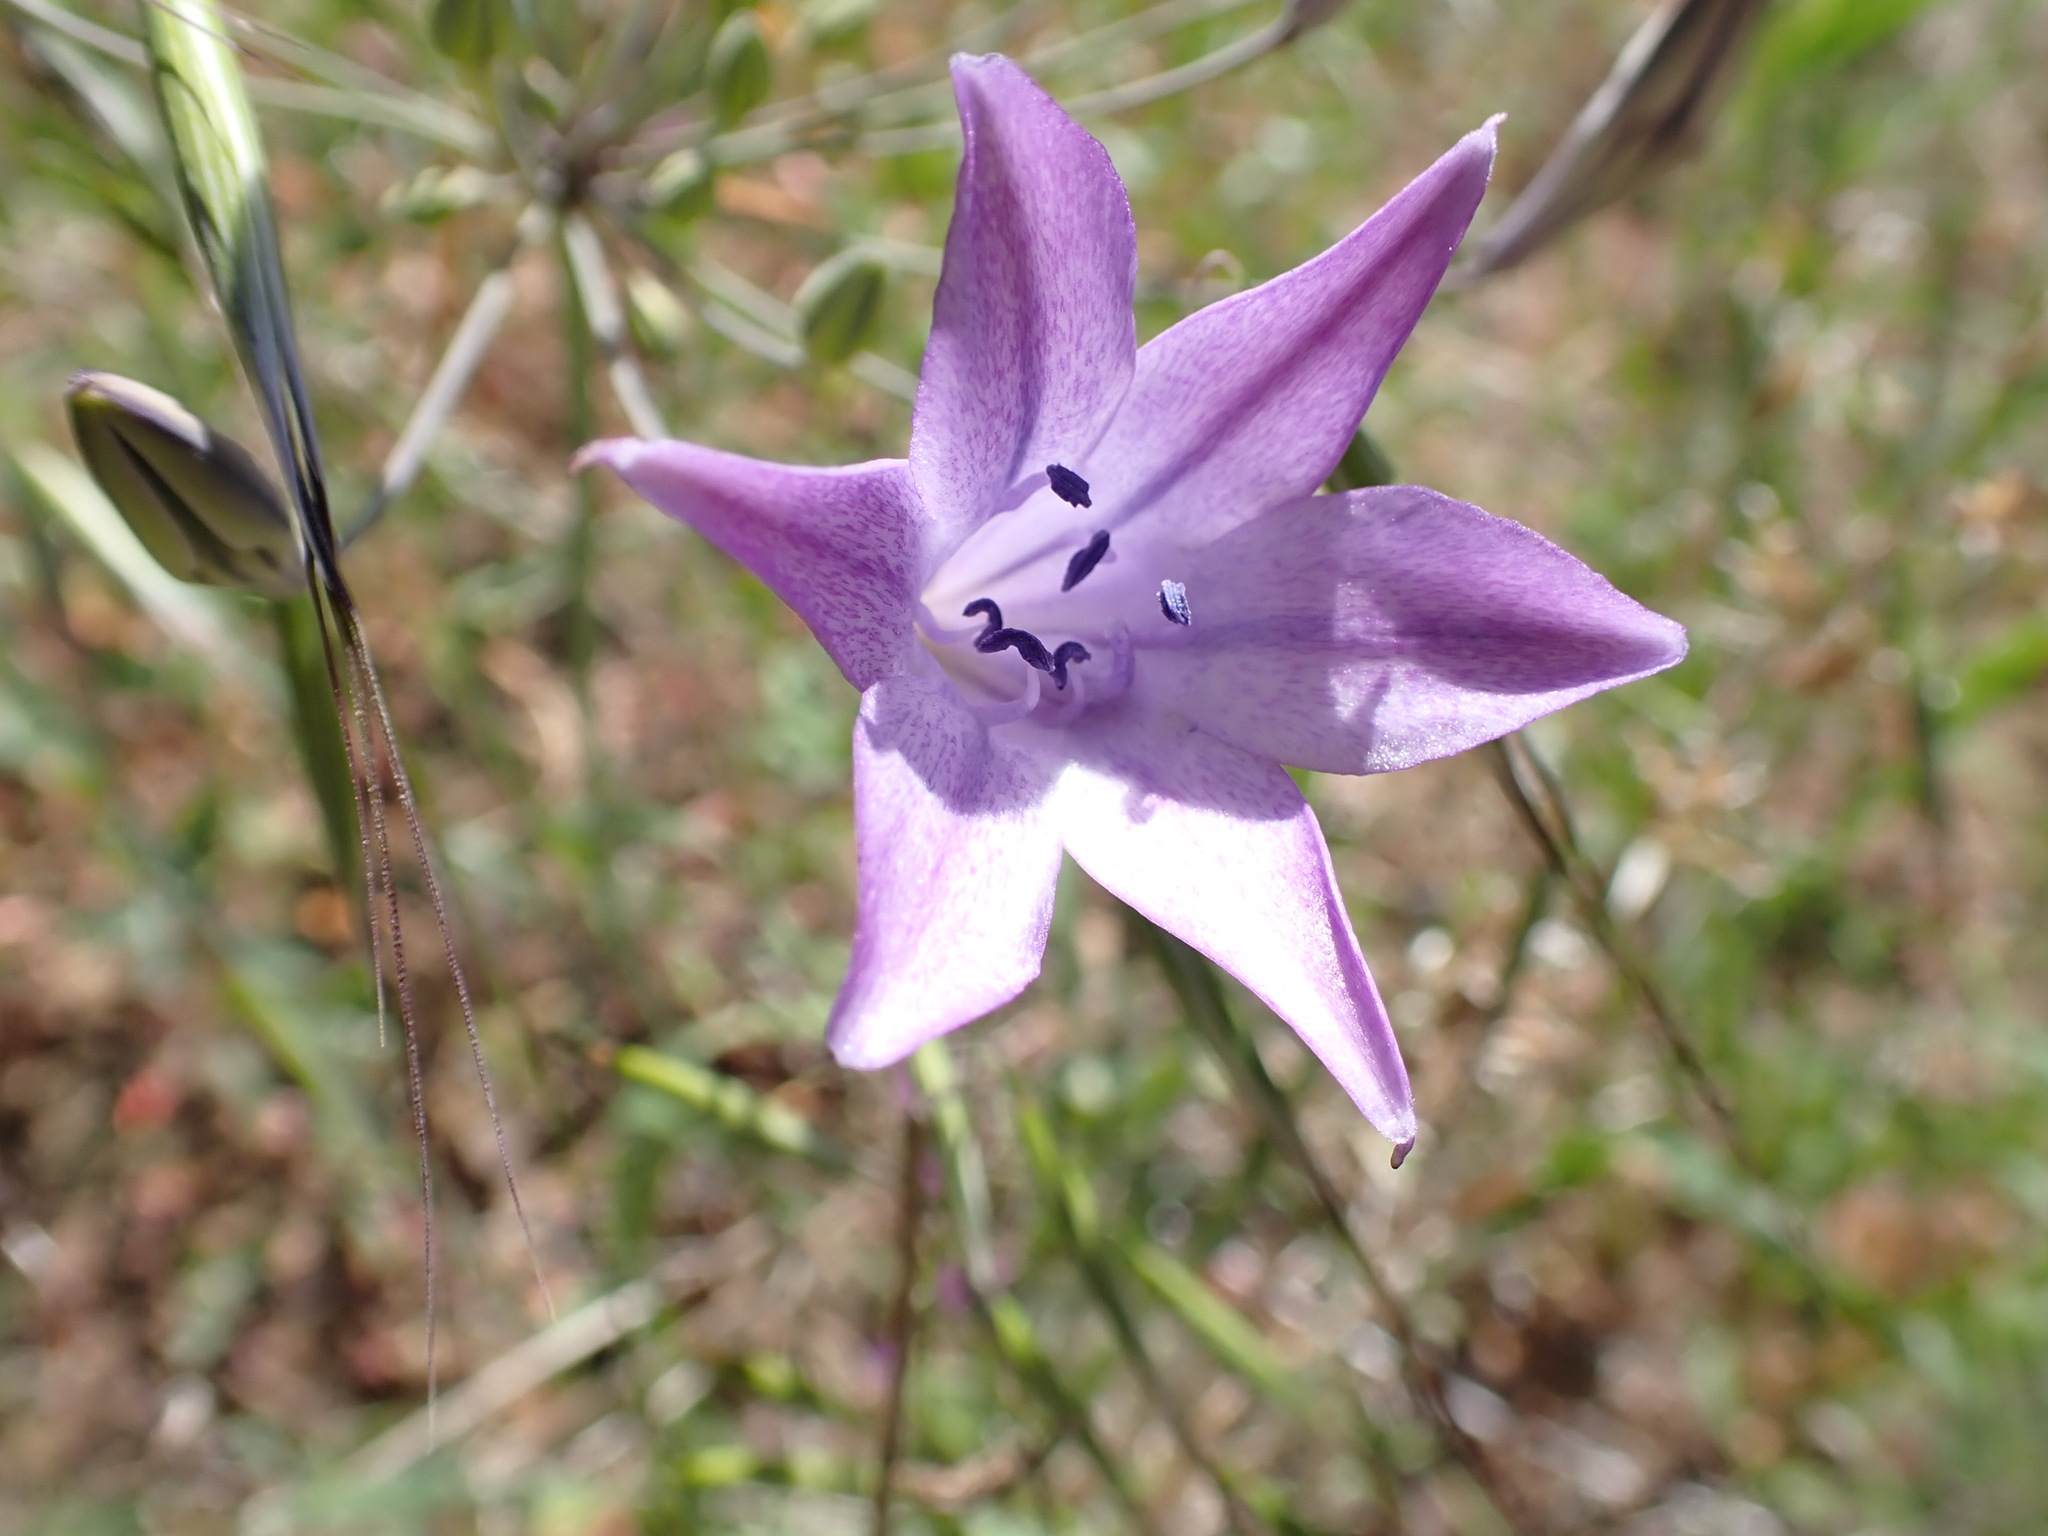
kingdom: Plantae
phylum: Tracheophyta
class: Liliopsida
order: Asparagales
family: Asparagaceae
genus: Triteleia
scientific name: Triteleia laxa
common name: Triplet-lily
